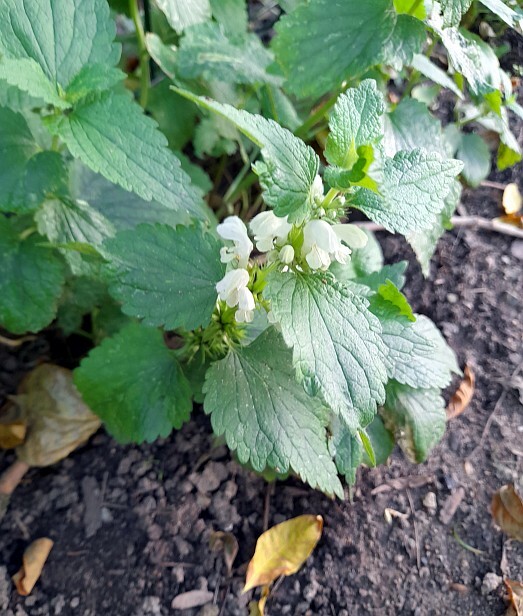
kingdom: Plantae
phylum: Tracheophyta
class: Magnoliopsida
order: Lamiales
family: Lamiaceae
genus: Lamium
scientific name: Lamium album
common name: White dead-nettle
